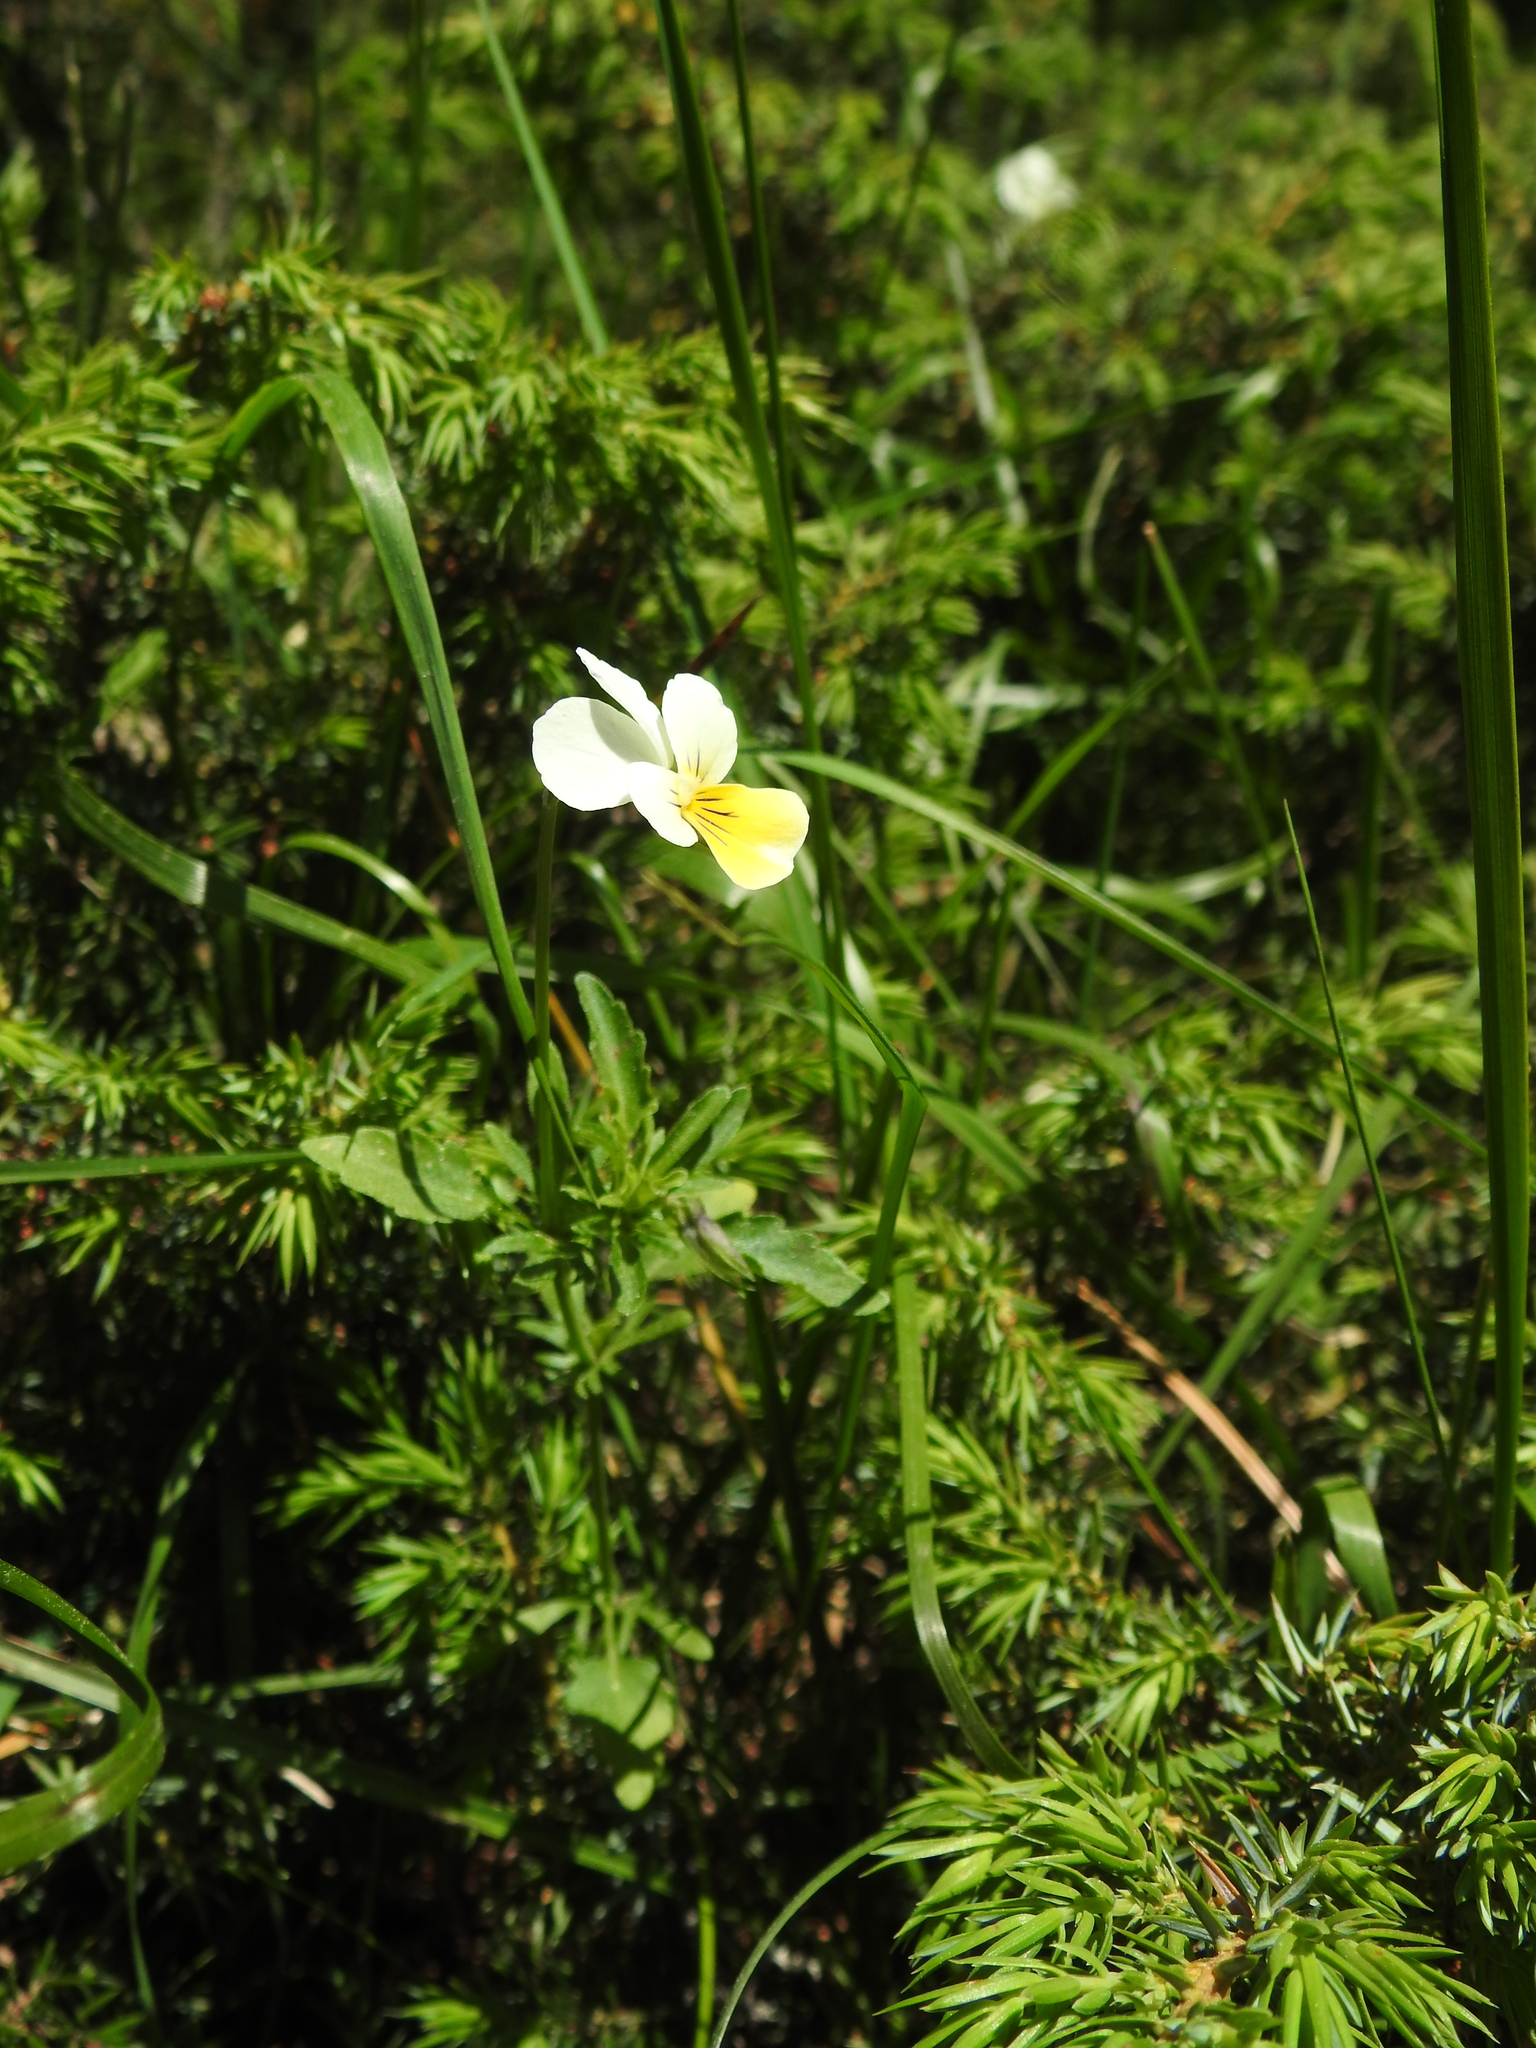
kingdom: Plantae
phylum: Tracheophyta
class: Magnoliopsida
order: Malpighiales
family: Violaceae
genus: Viola
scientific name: Viola tricolor
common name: Pansy
